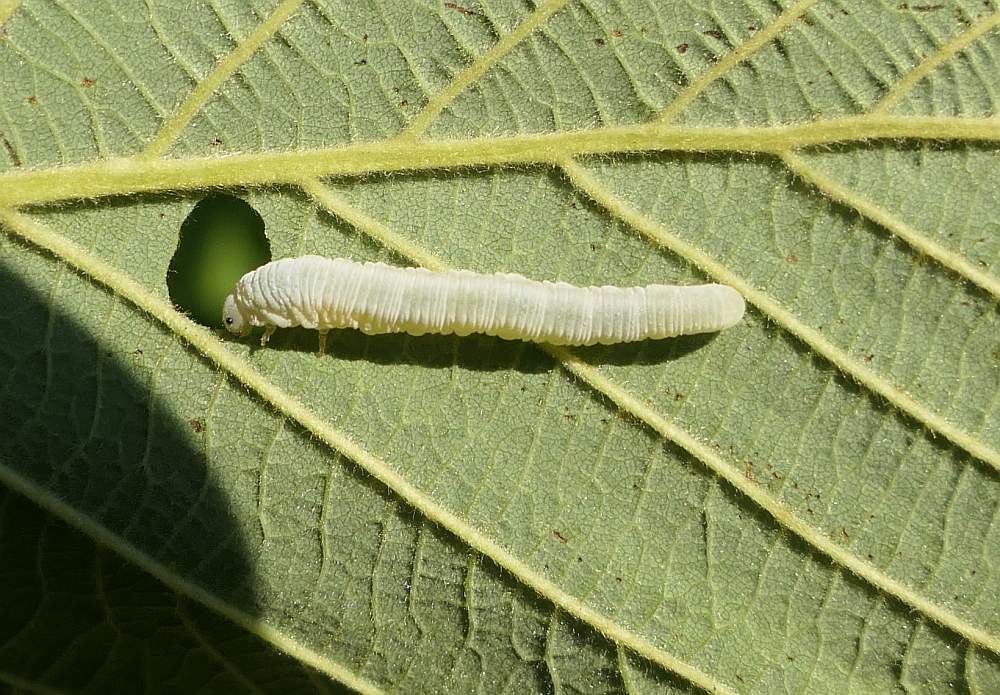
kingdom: Animalia
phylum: Arthropoda
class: Insecta
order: Hymenoptera
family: Tenthredinidae
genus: Monsoma
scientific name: Monsoma pulveratum
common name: Green alder sawfly
